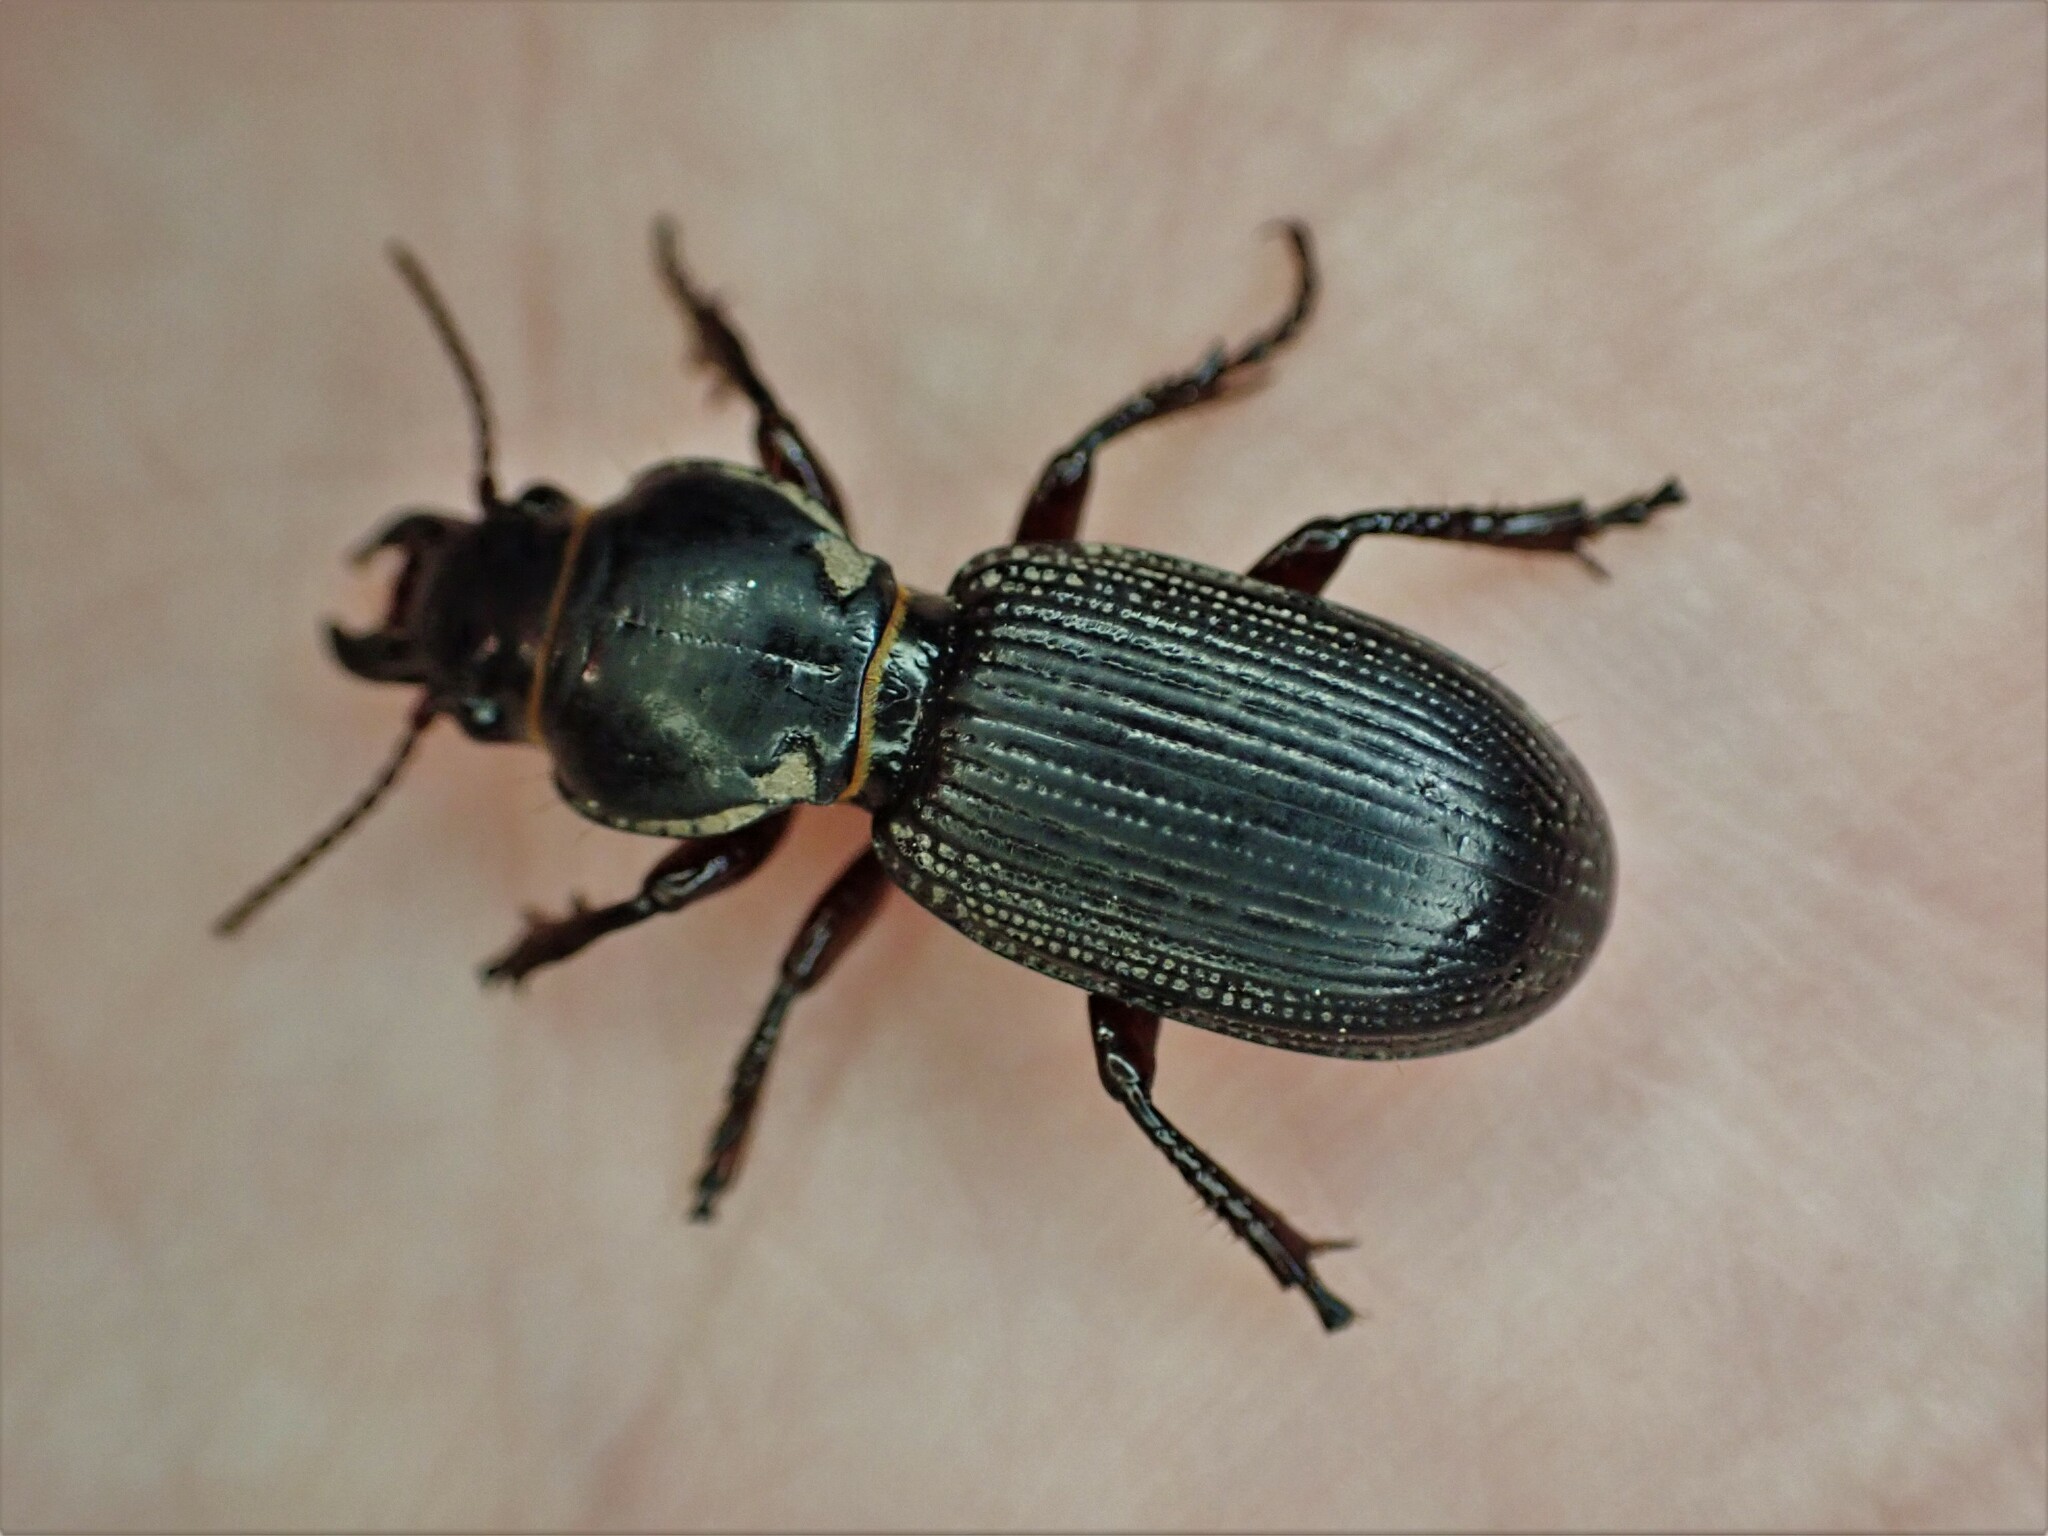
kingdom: Animalia
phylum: Arthropoda
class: Insecta
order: Coleoptera
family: Carabidae
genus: Mecodema
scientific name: Mecodema moniliferum
